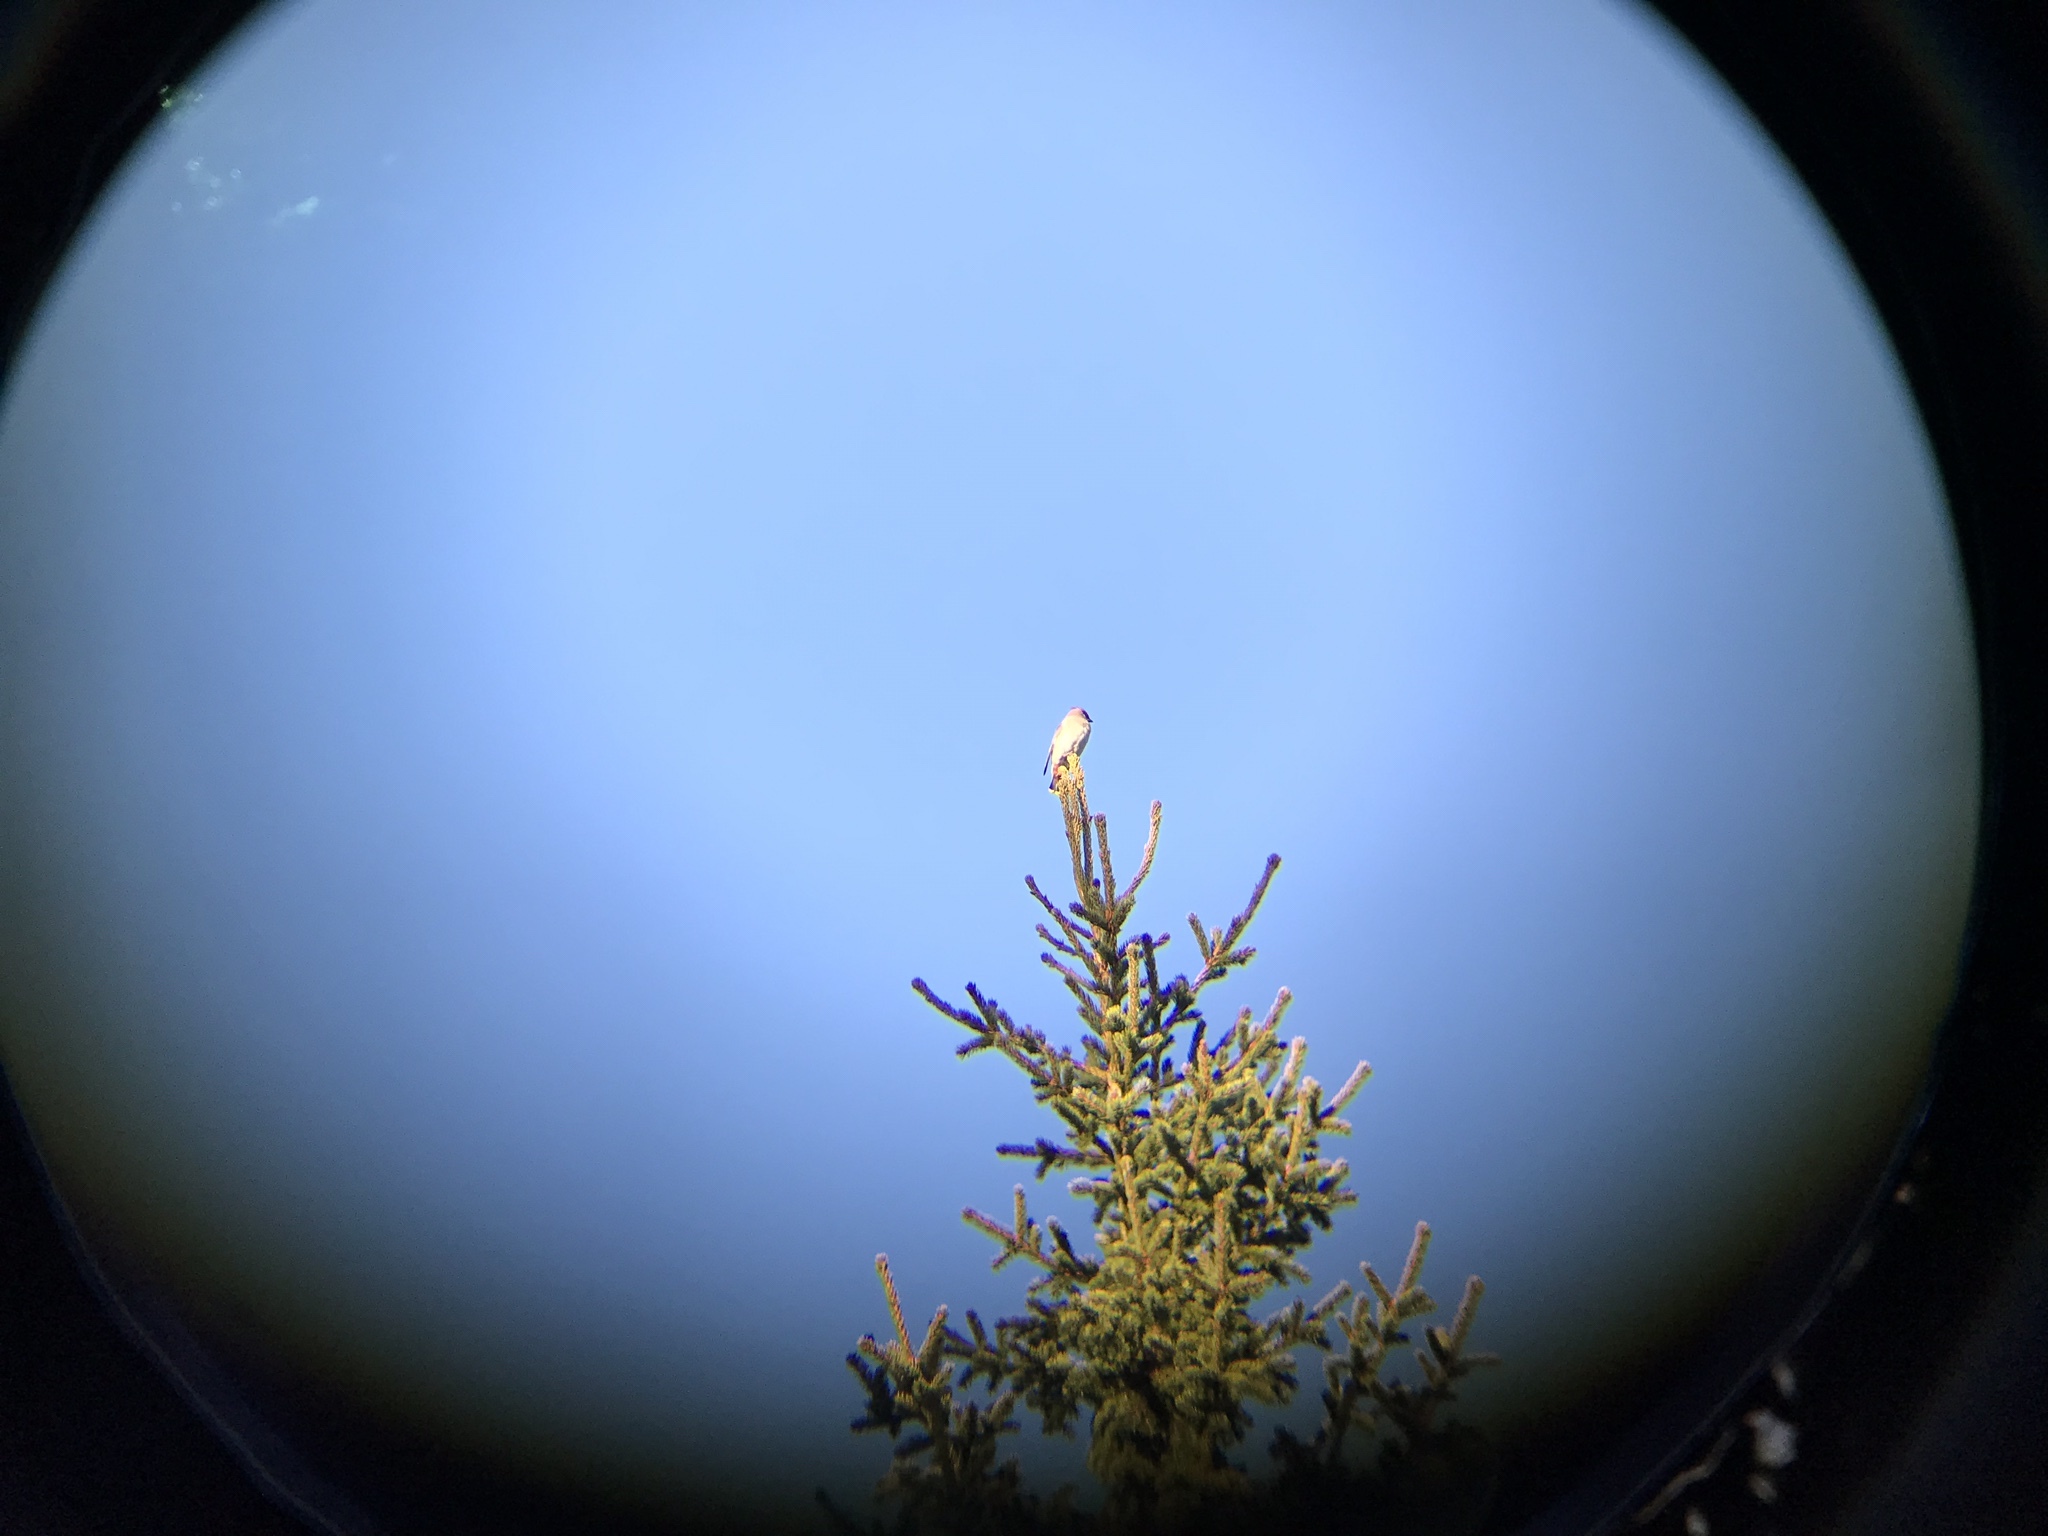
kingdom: Animalia
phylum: Chordata
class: Aves
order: Passeriformes
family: Bombycillidae
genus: Bombycilla
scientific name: Bombycilla garrulus
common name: Bohemian waxwing
